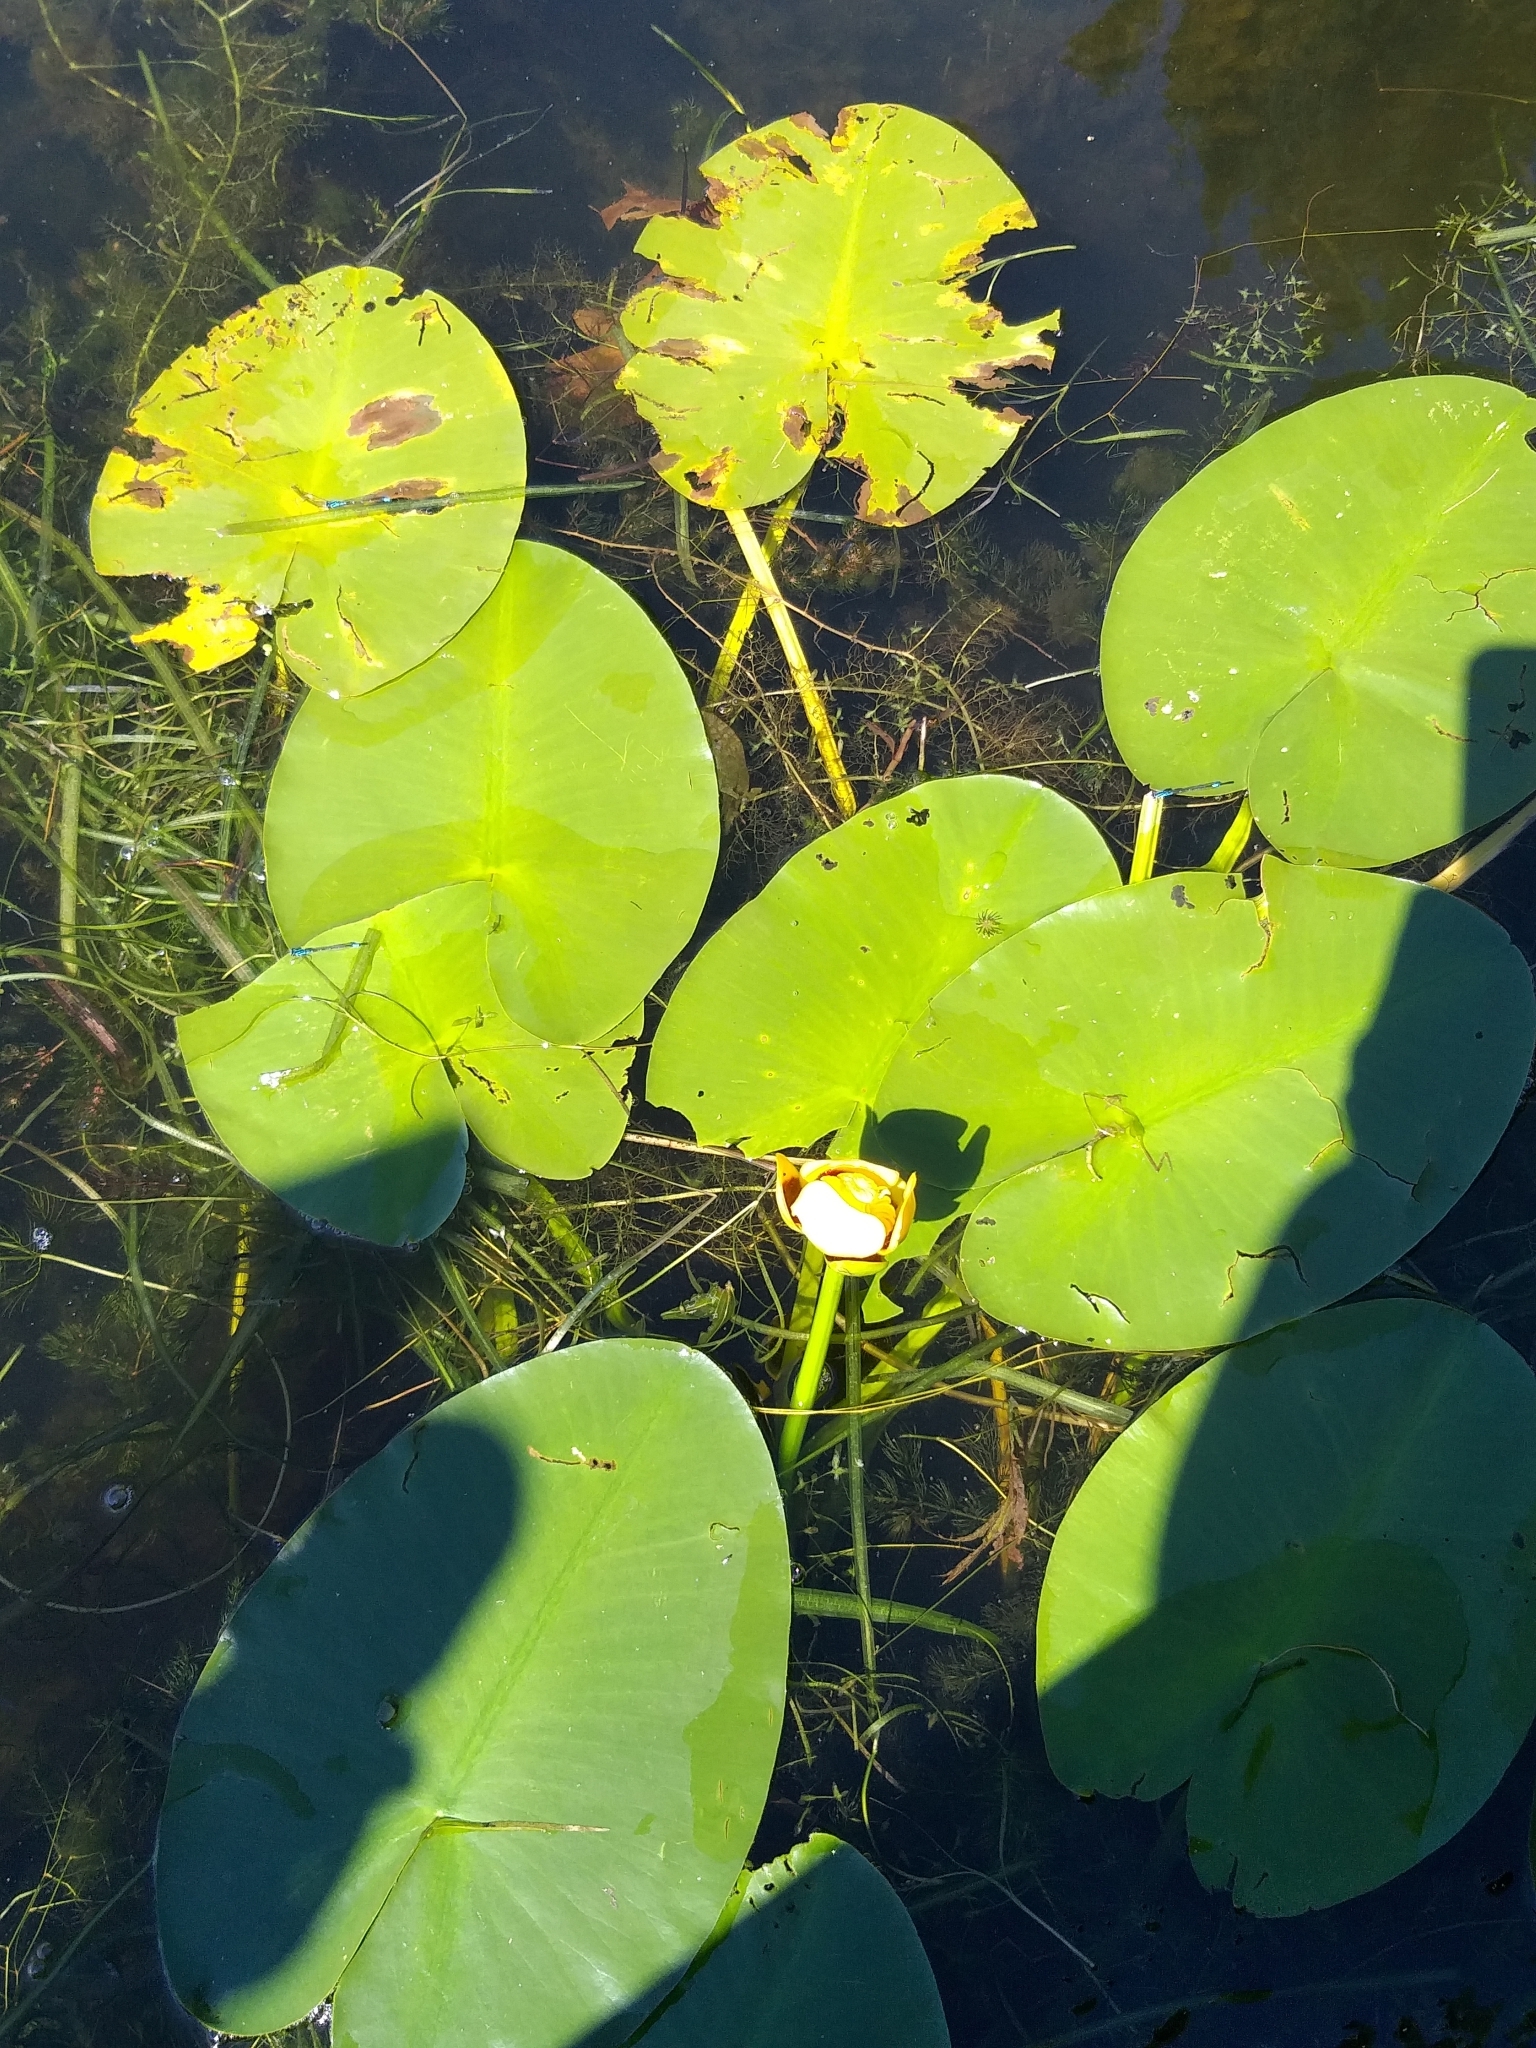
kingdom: Plantae
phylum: Tracheophyta
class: Magnoliopsida
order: Nymphaeales
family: Nymphaeaceae
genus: Nuphar
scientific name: Nuphar variegata
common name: Beaver-root
